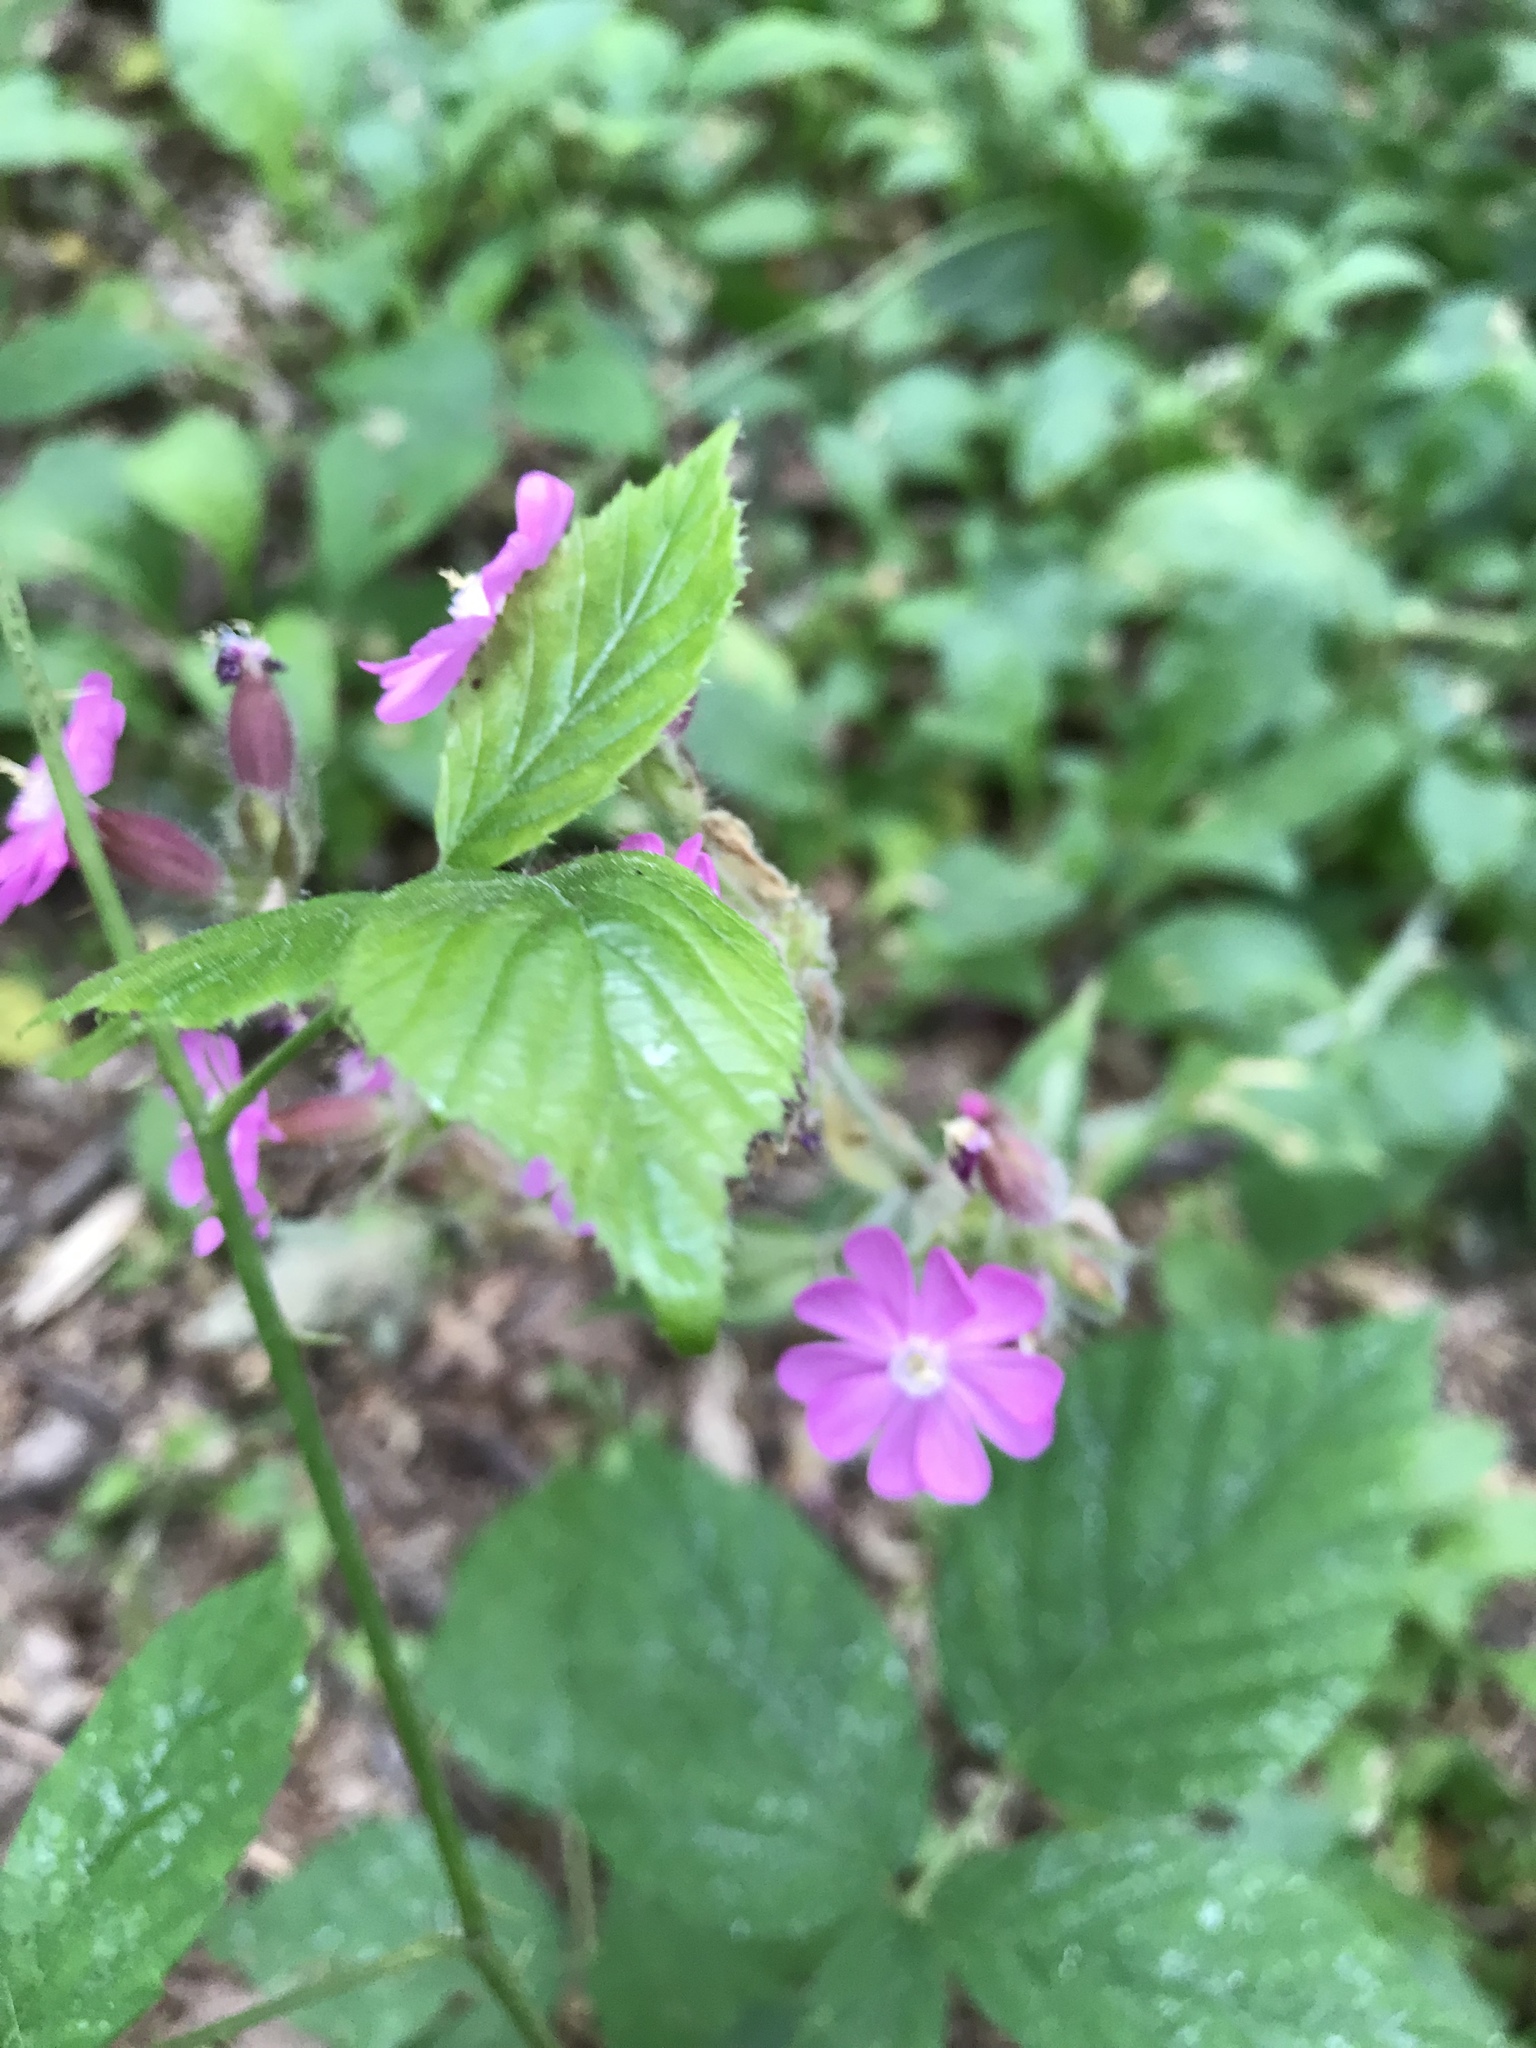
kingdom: Plantae
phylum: Tracheophyta
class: Magnoliopsida
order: Caryophyllales
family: Caryophyllaceae
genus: Silene
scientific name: Silene dioica
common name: Red campion
